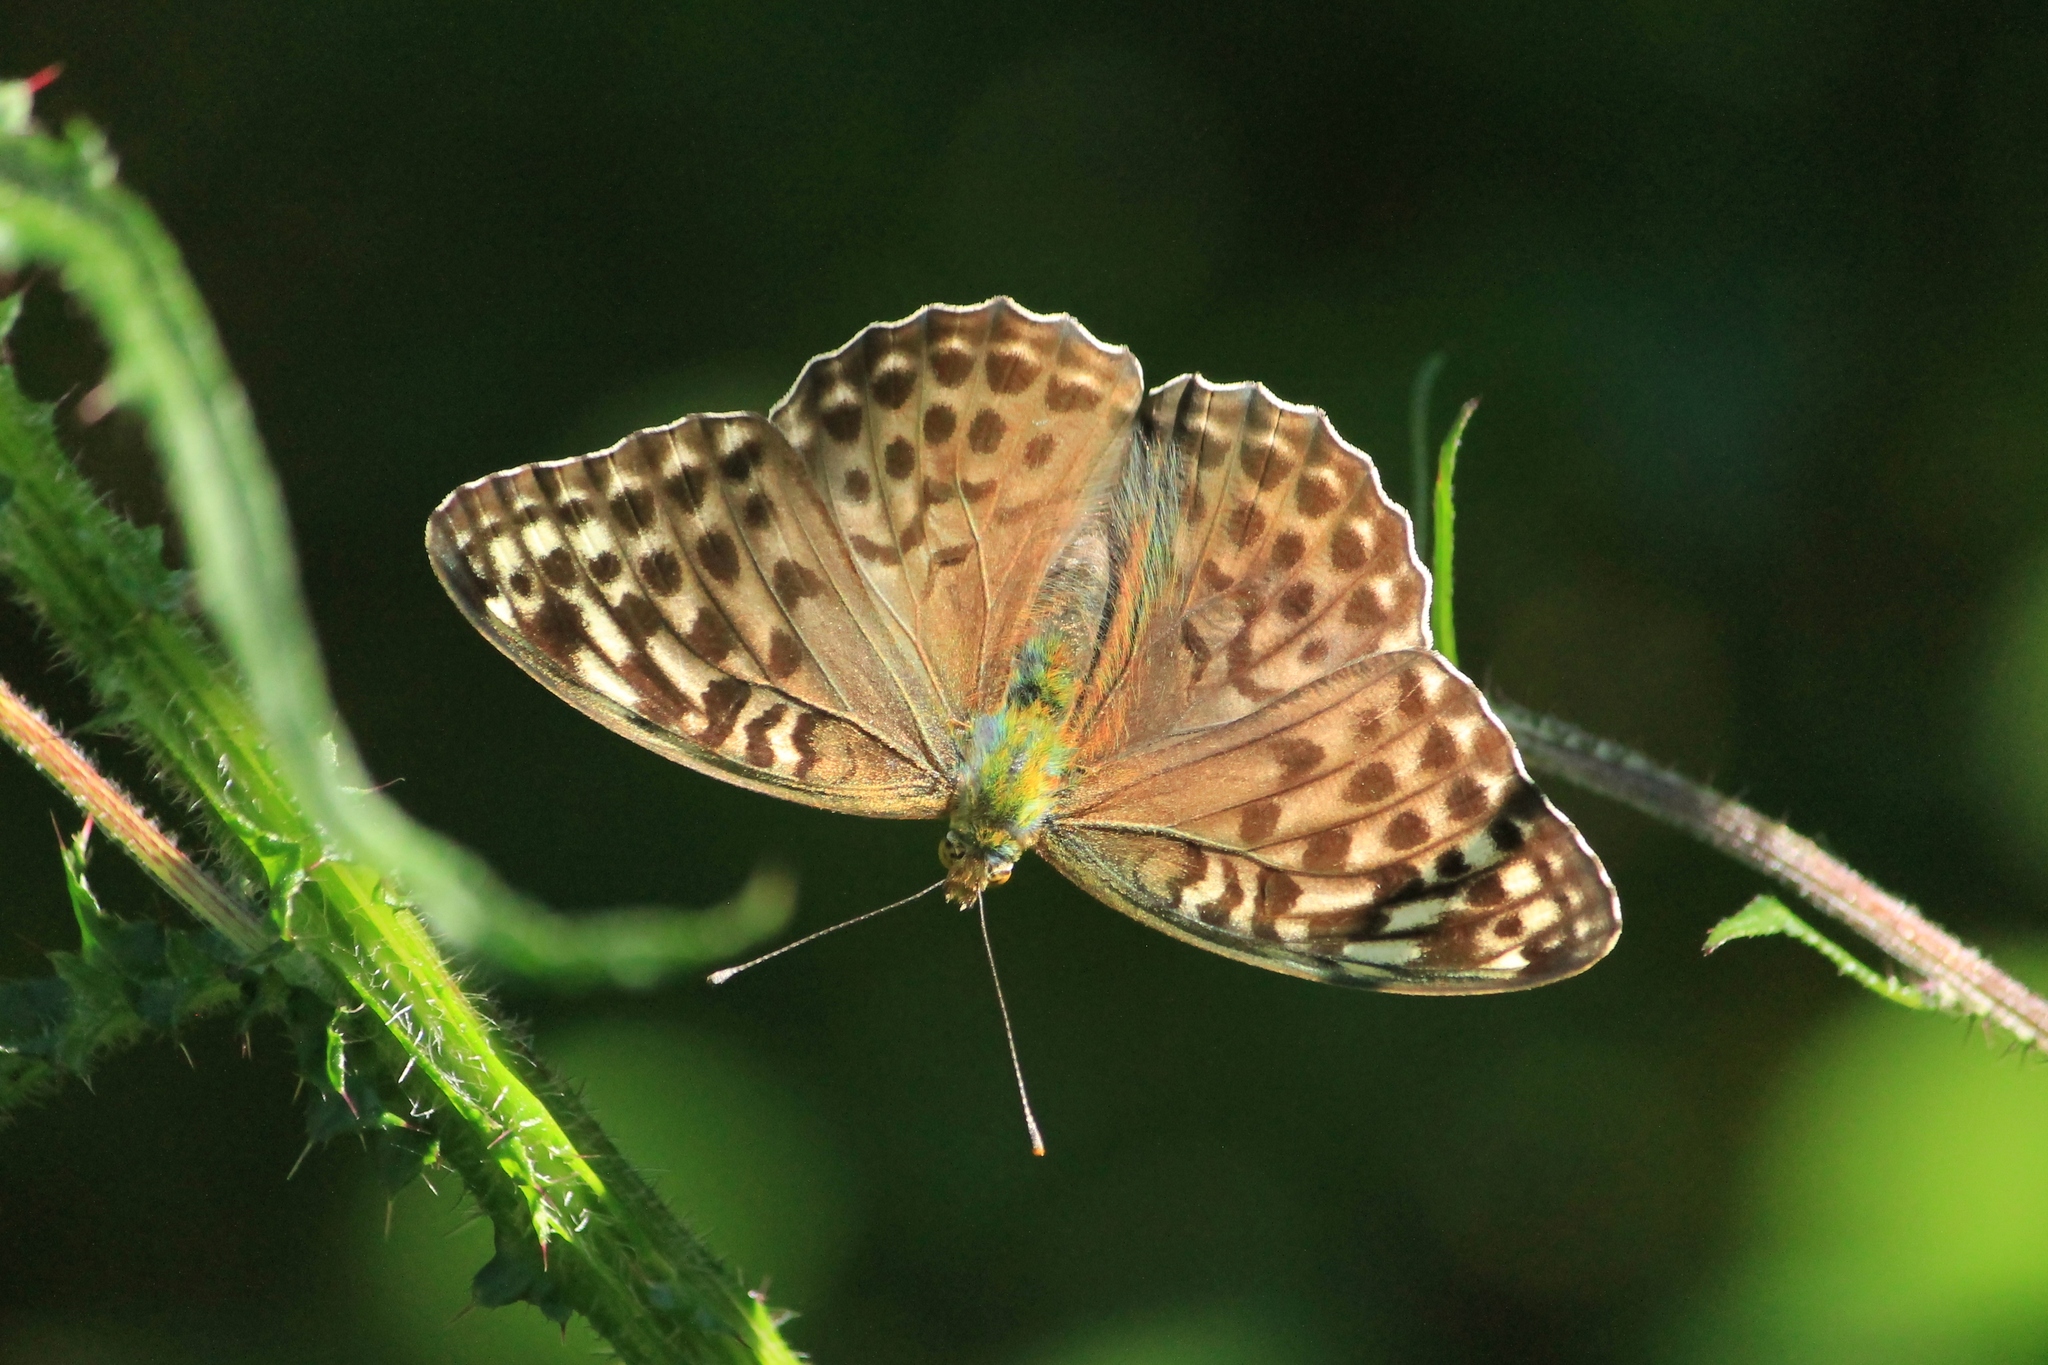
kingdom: Animalia
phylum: Arthropoda
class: Insecta
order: Lepidoptera
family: Nymphalidae
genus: Argynnis
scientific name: Argynnis paphia
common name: Silver-washed fritillary
